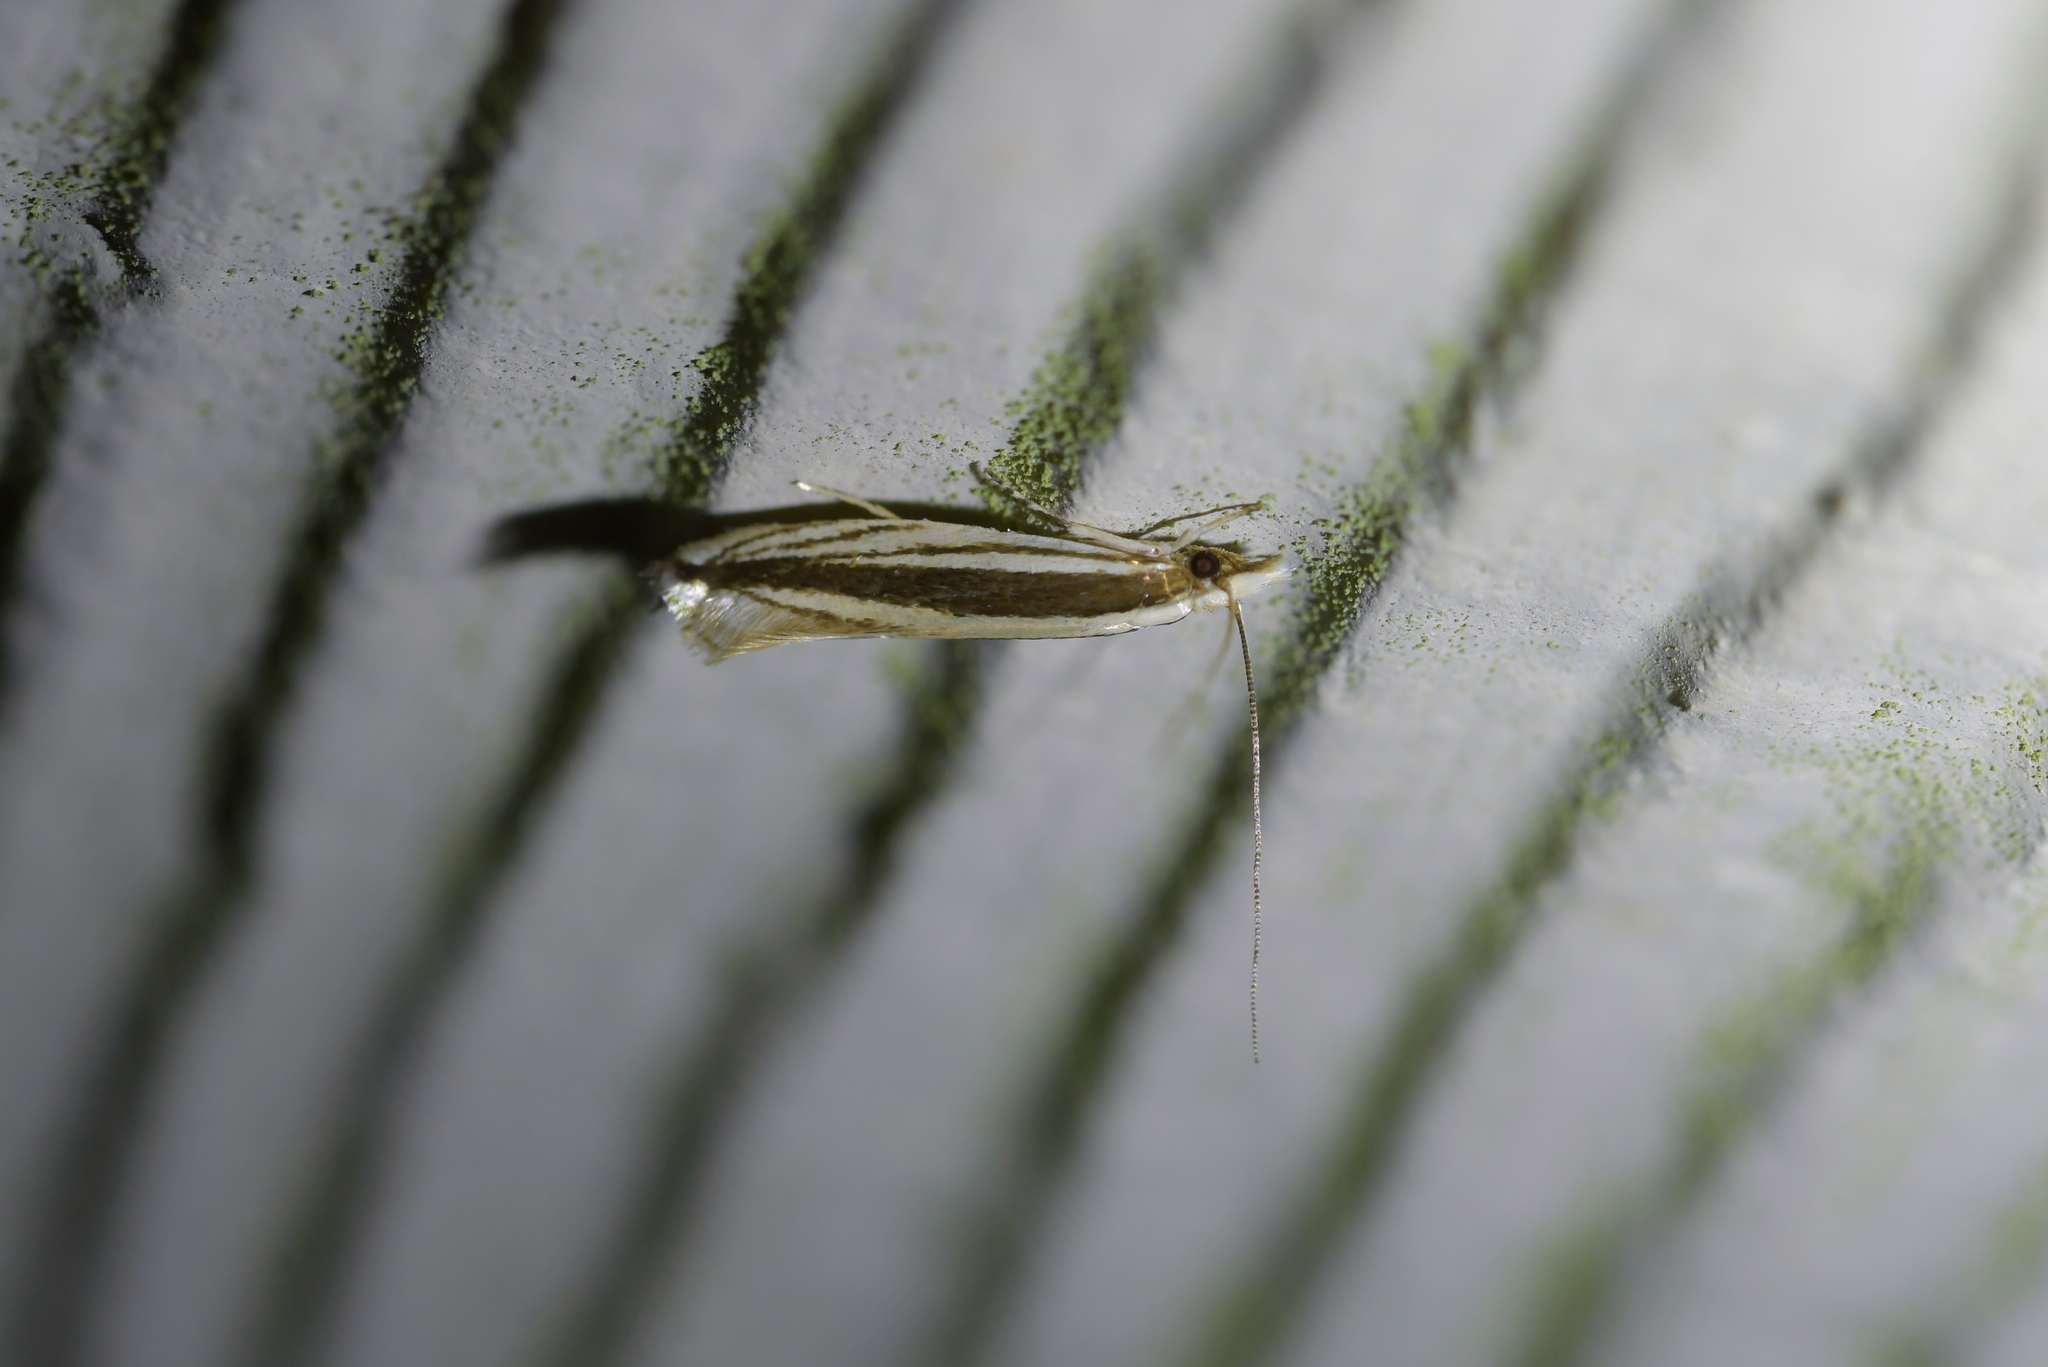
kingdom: Animalia
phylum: Arthropoda
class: Insecta
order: Lepidoptera
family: Tineidae
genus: Erechthias
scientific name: Erechthias stilbella
